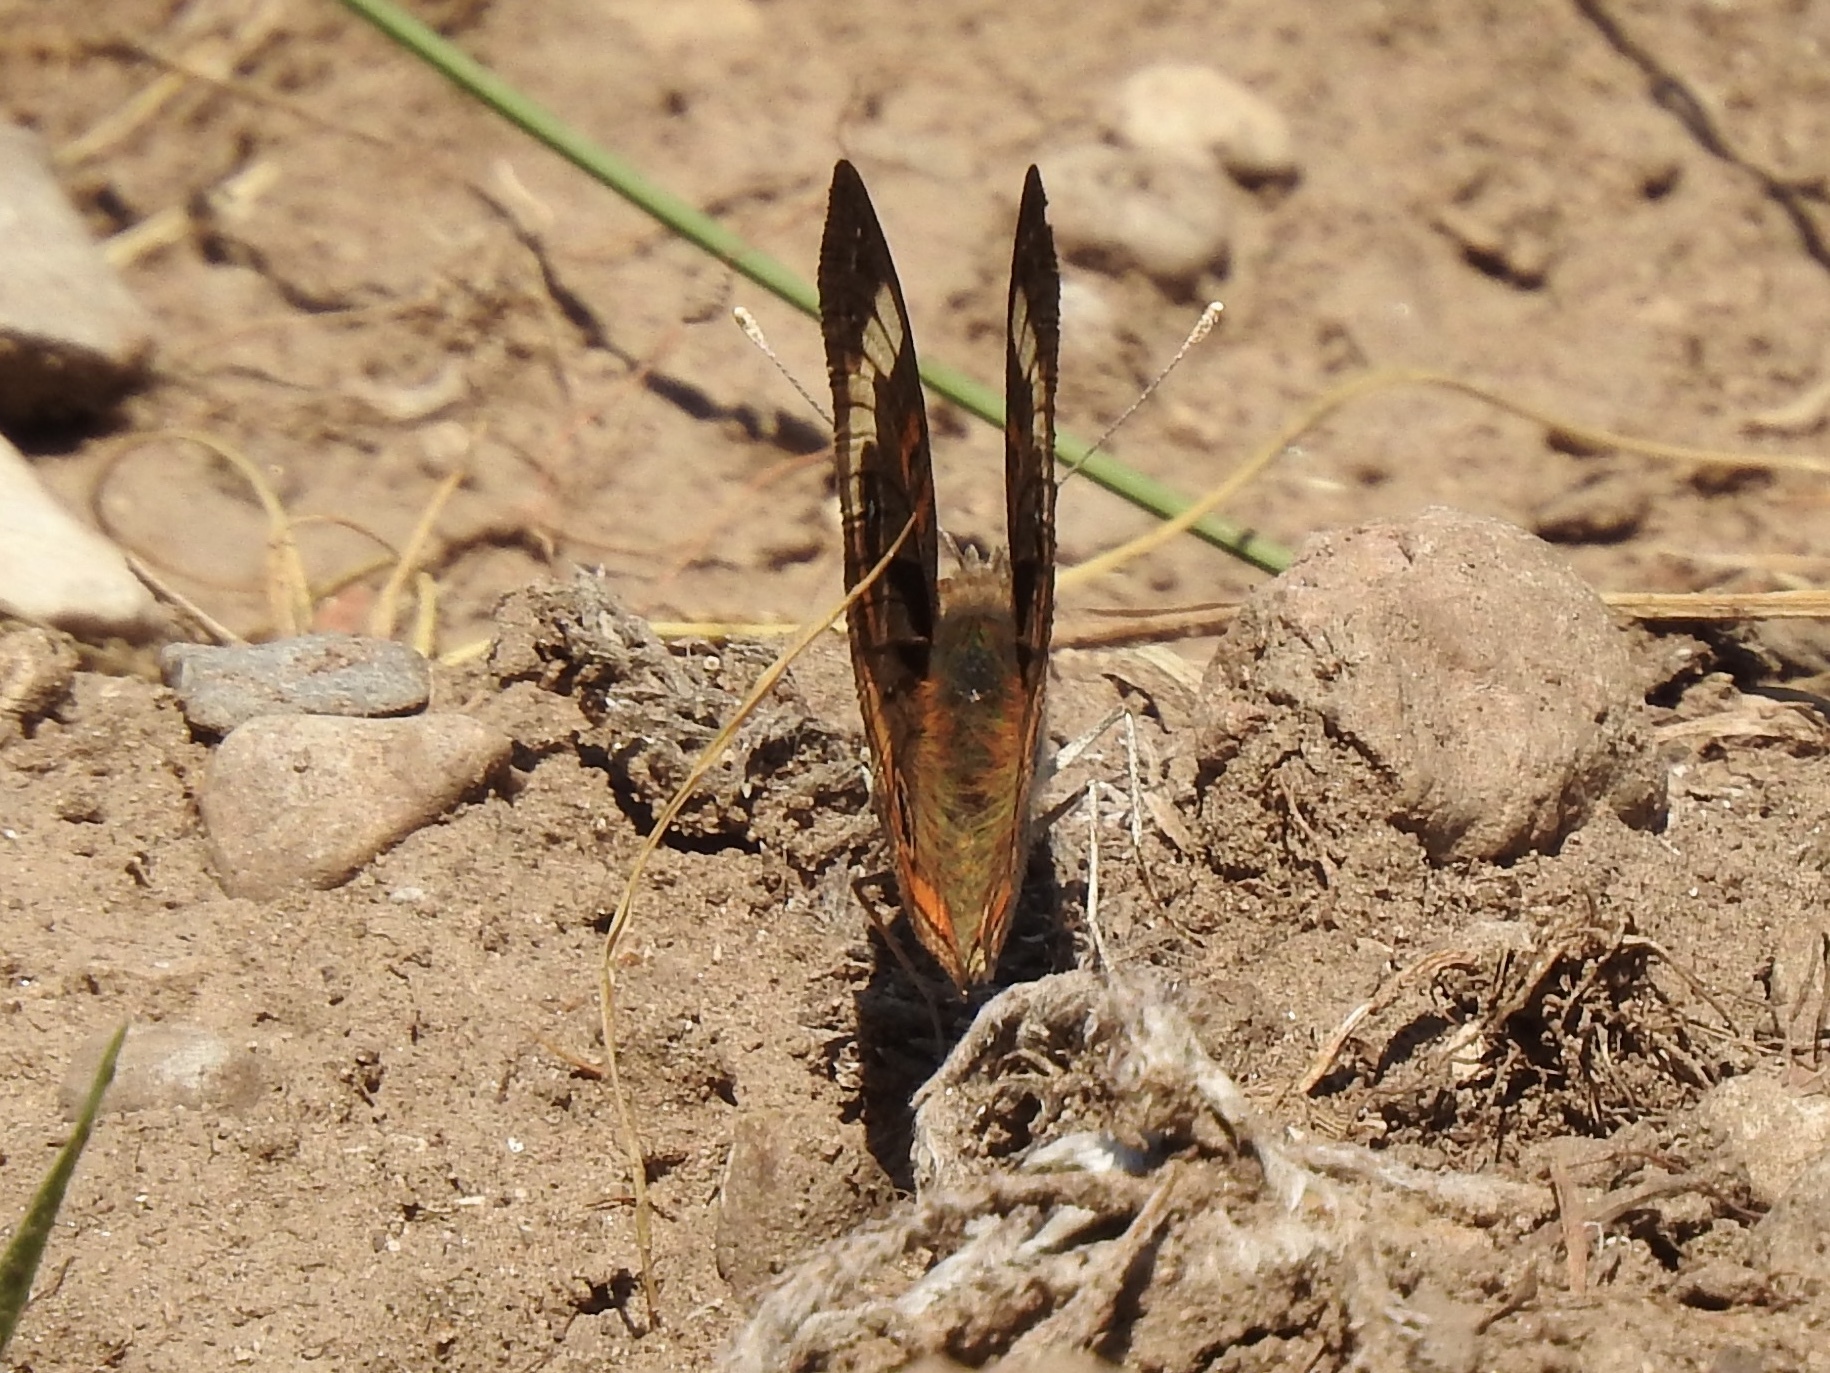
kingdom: Animalia
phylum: Arthropoda
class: Insecta
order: Lepidoptera
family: Nymphalidae
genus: Junonia
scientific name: Junonia grisea
